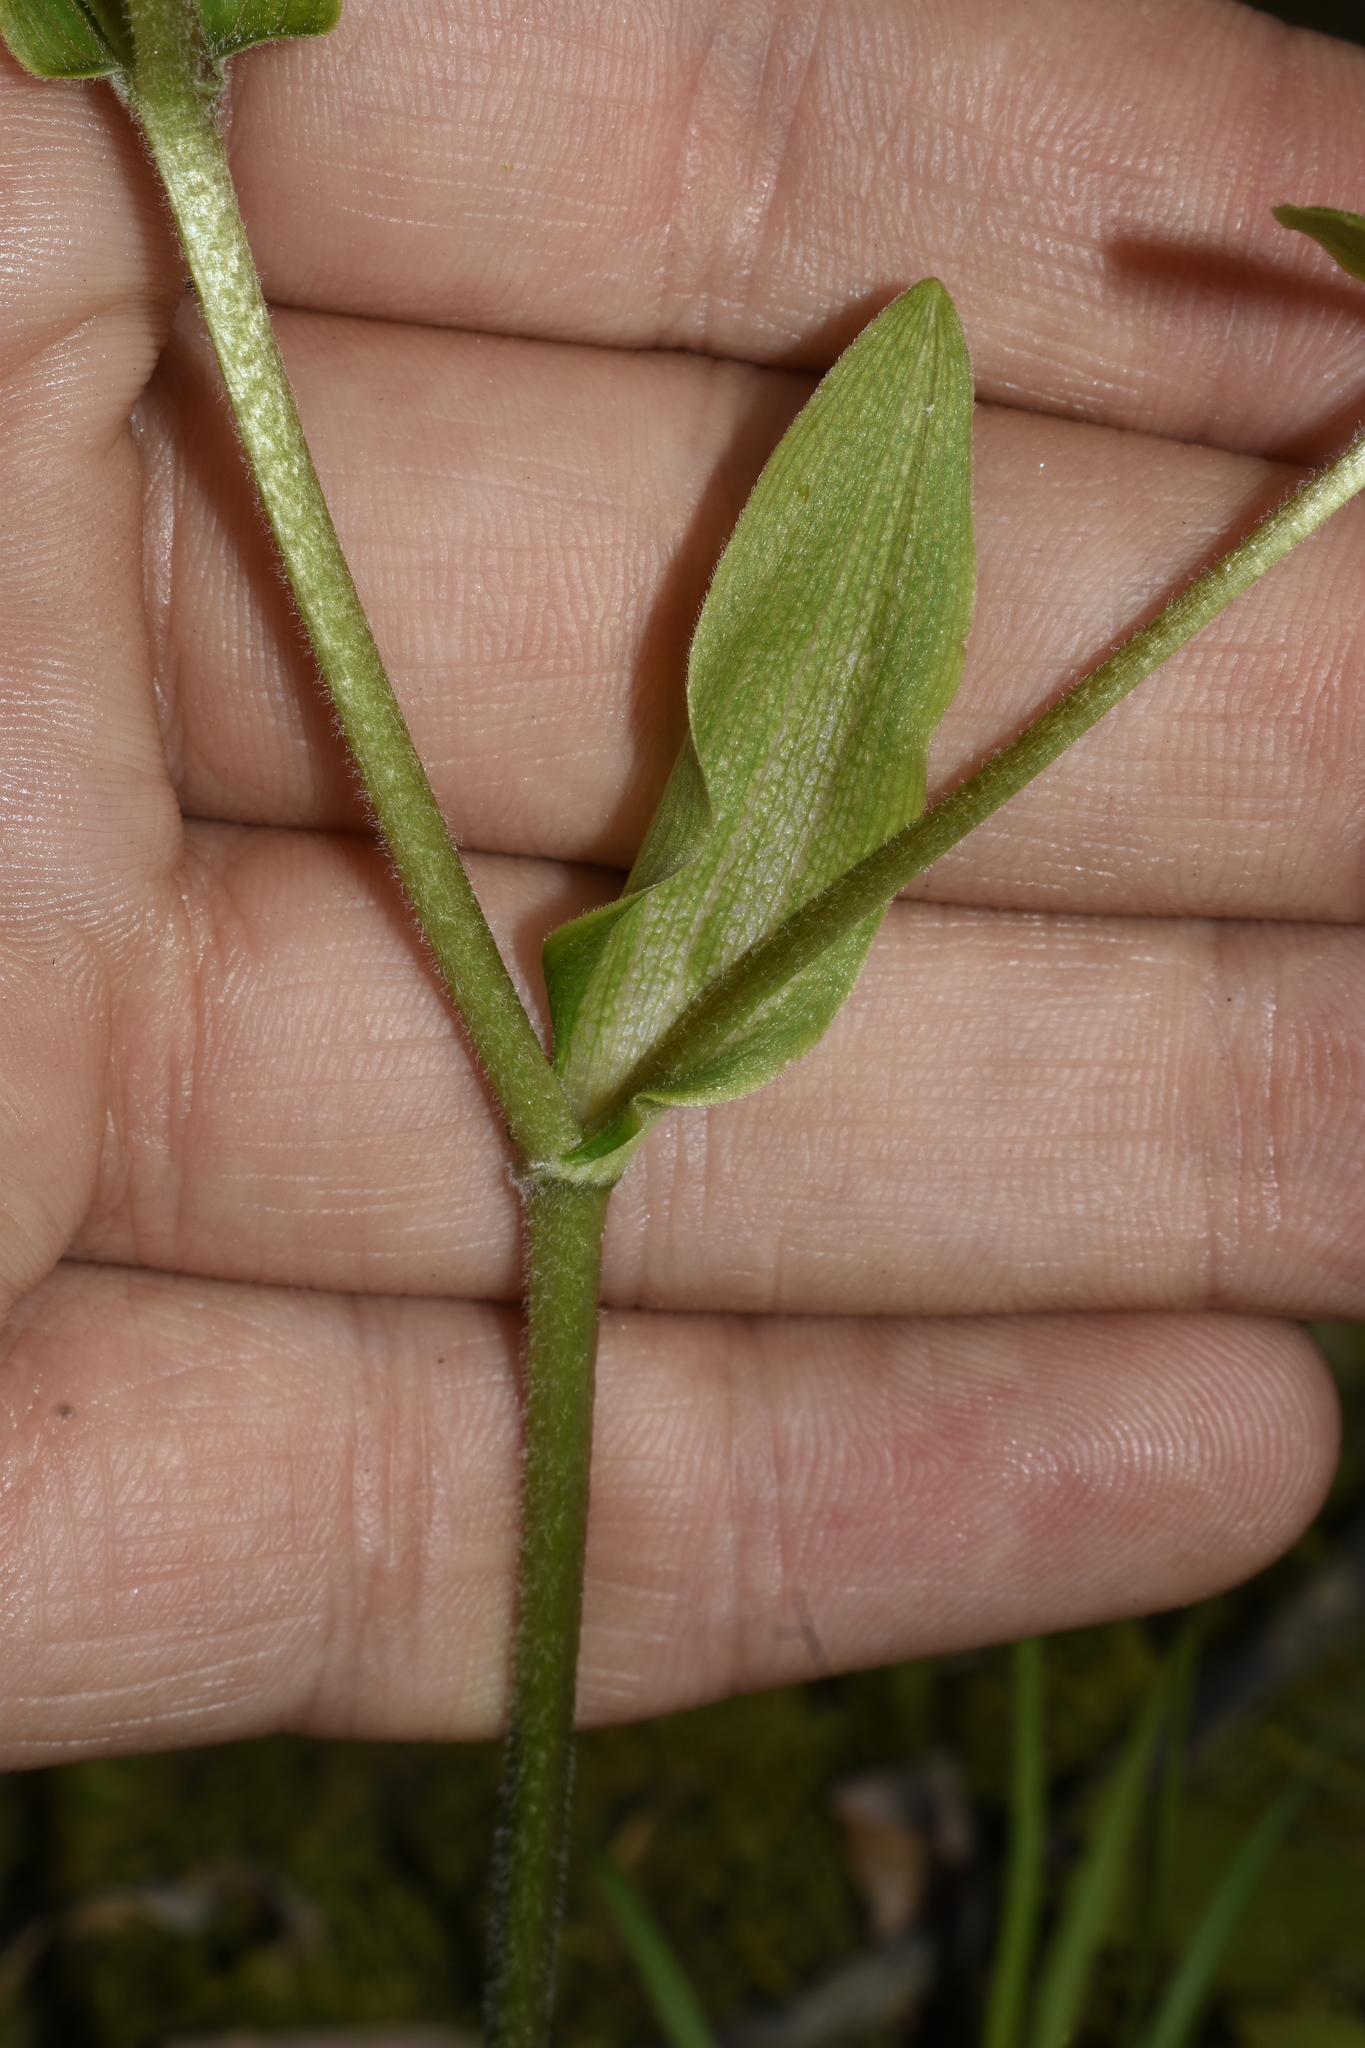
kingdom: Plantae
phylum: Tracheophyta
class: Liliopsida
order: Liliales
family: Liliaceae
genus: Prosartes
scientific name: Prosartes lanuginosa
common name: Hairy mandarin
